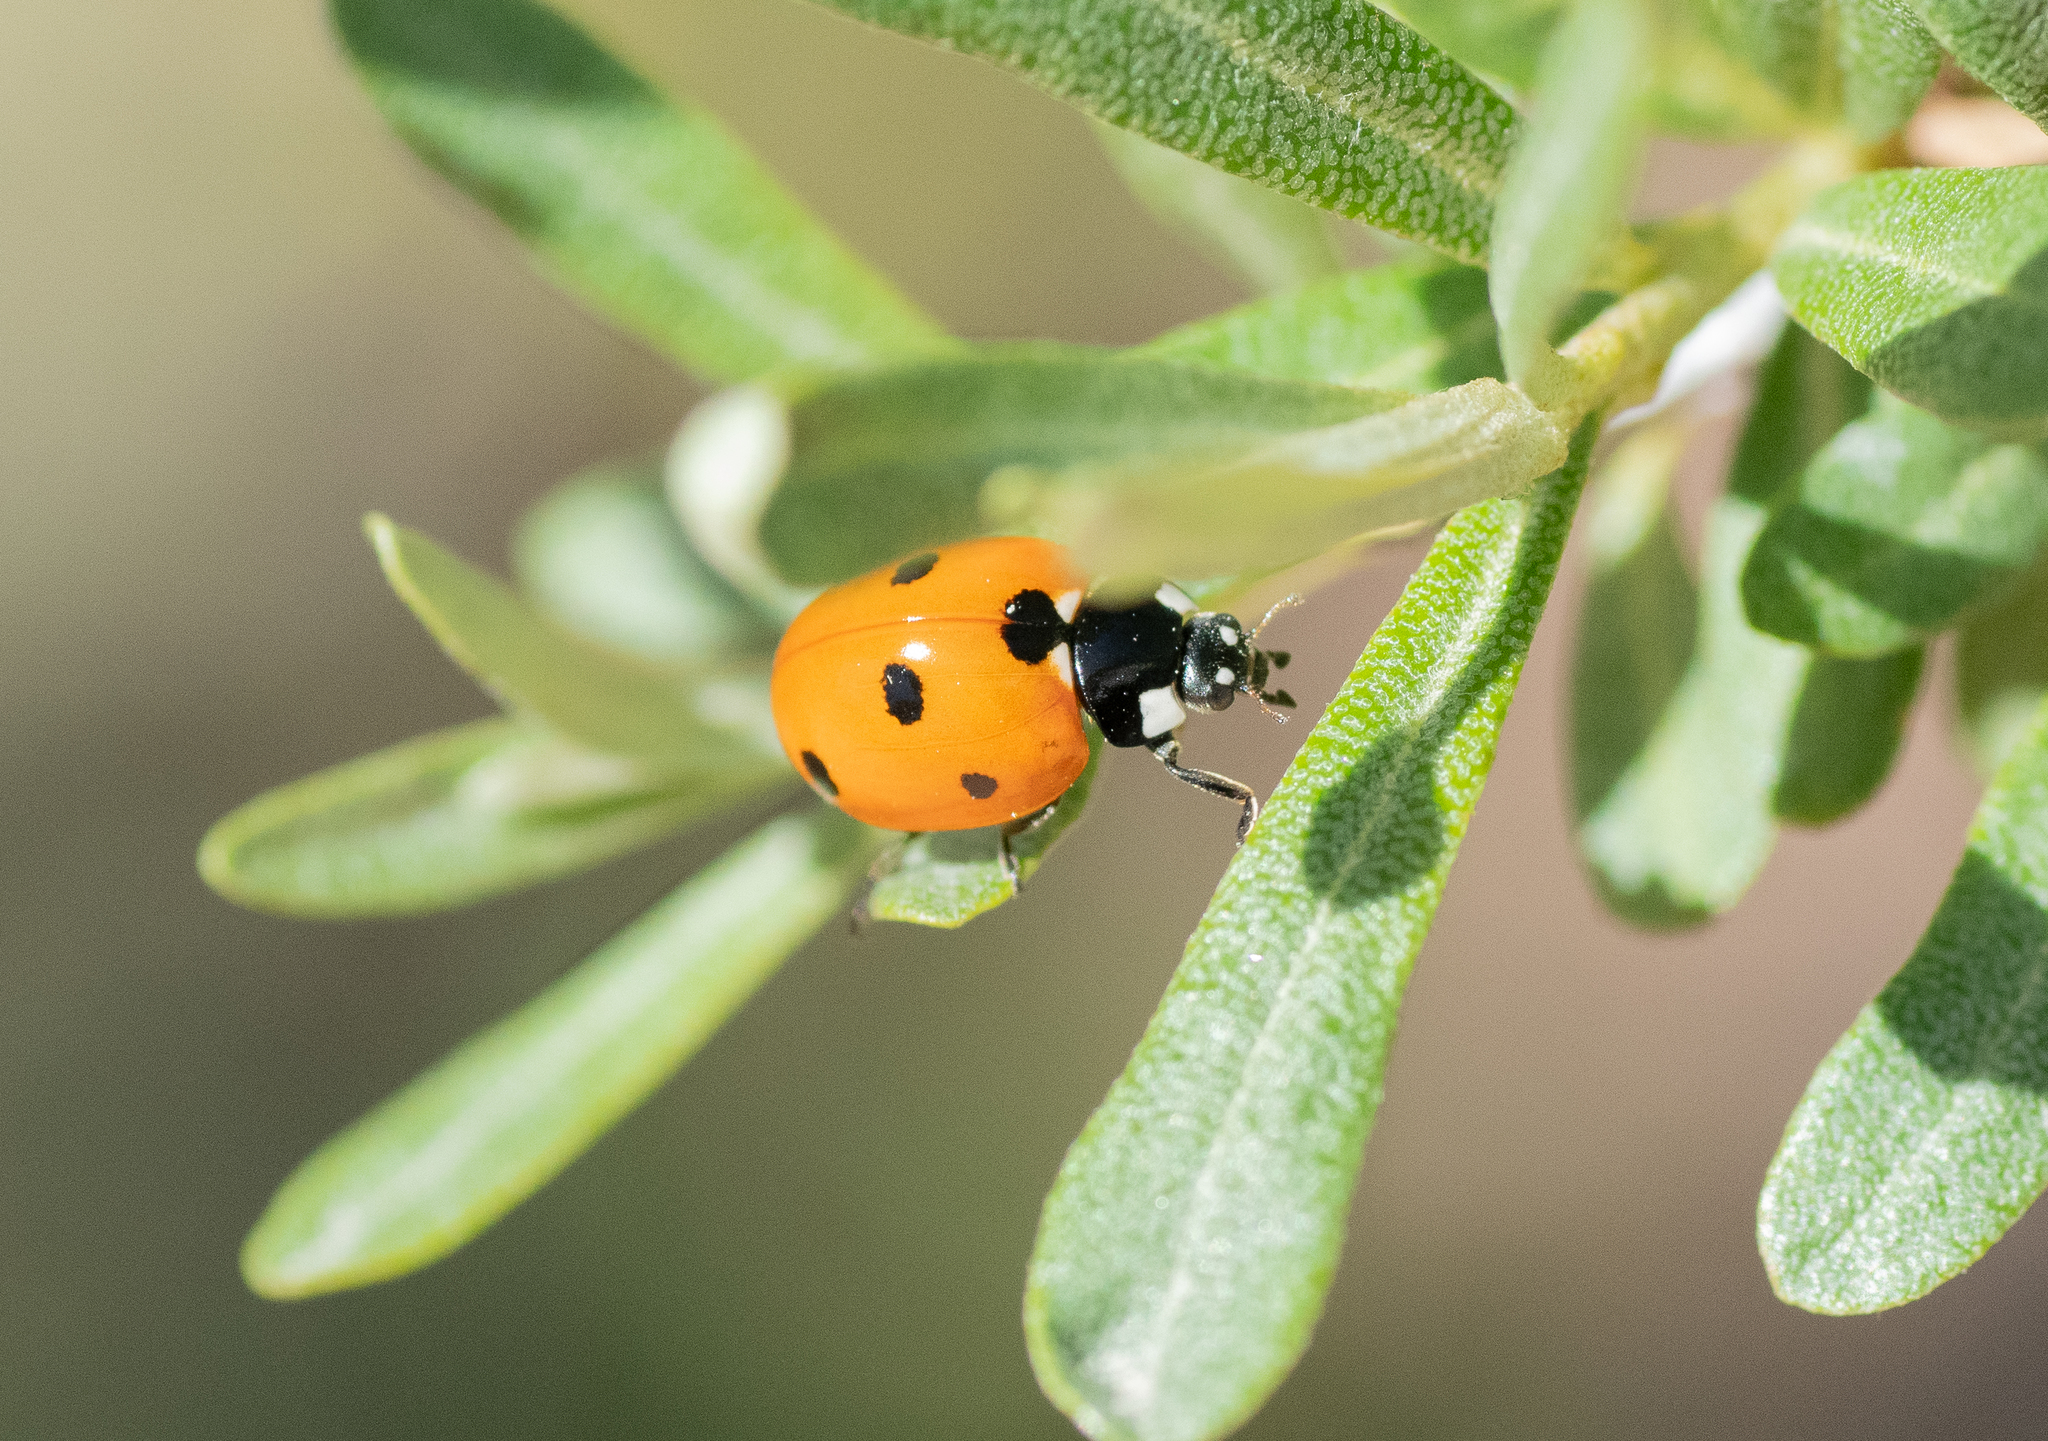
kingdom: Animalia
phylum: Arthropoda
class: Insecta
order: Coleoptera
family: Coccinellidae
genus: Coccinella
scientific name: Coccinella septempunctata
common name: Sevenspotted lady beetle
